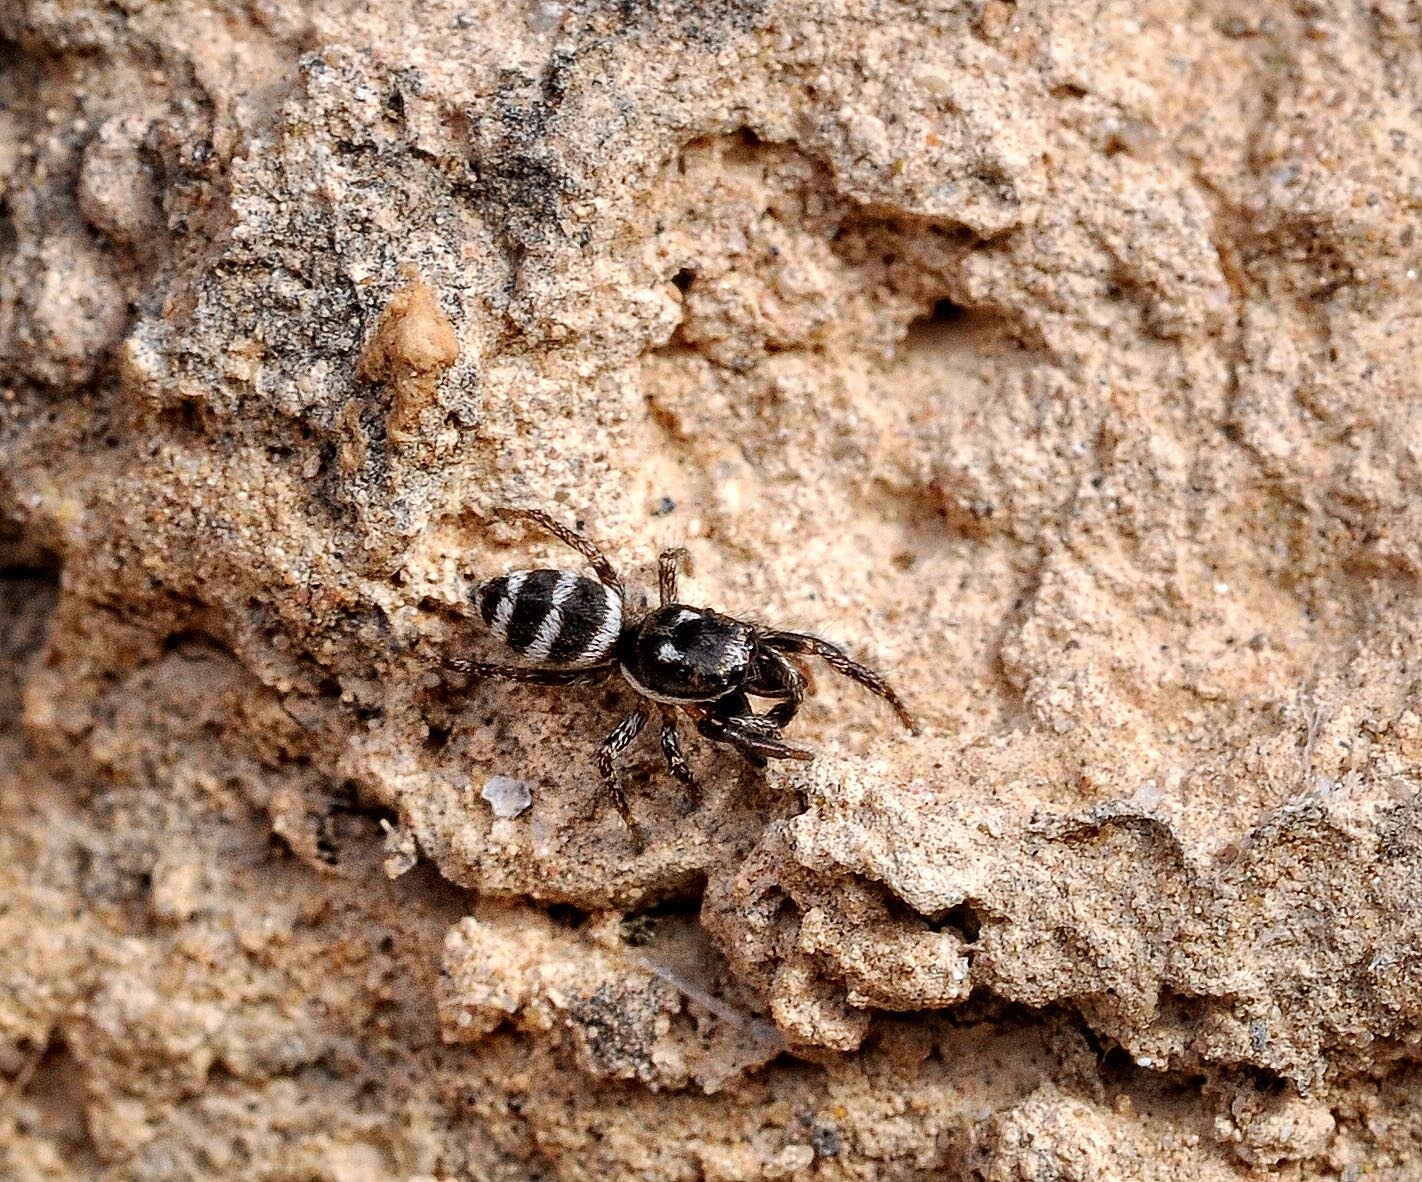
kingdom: Animalia
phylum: Arthropoda
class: Arachnida
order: Araneae
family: Salticidae
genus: Salticus
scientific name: Salticus propinquus
